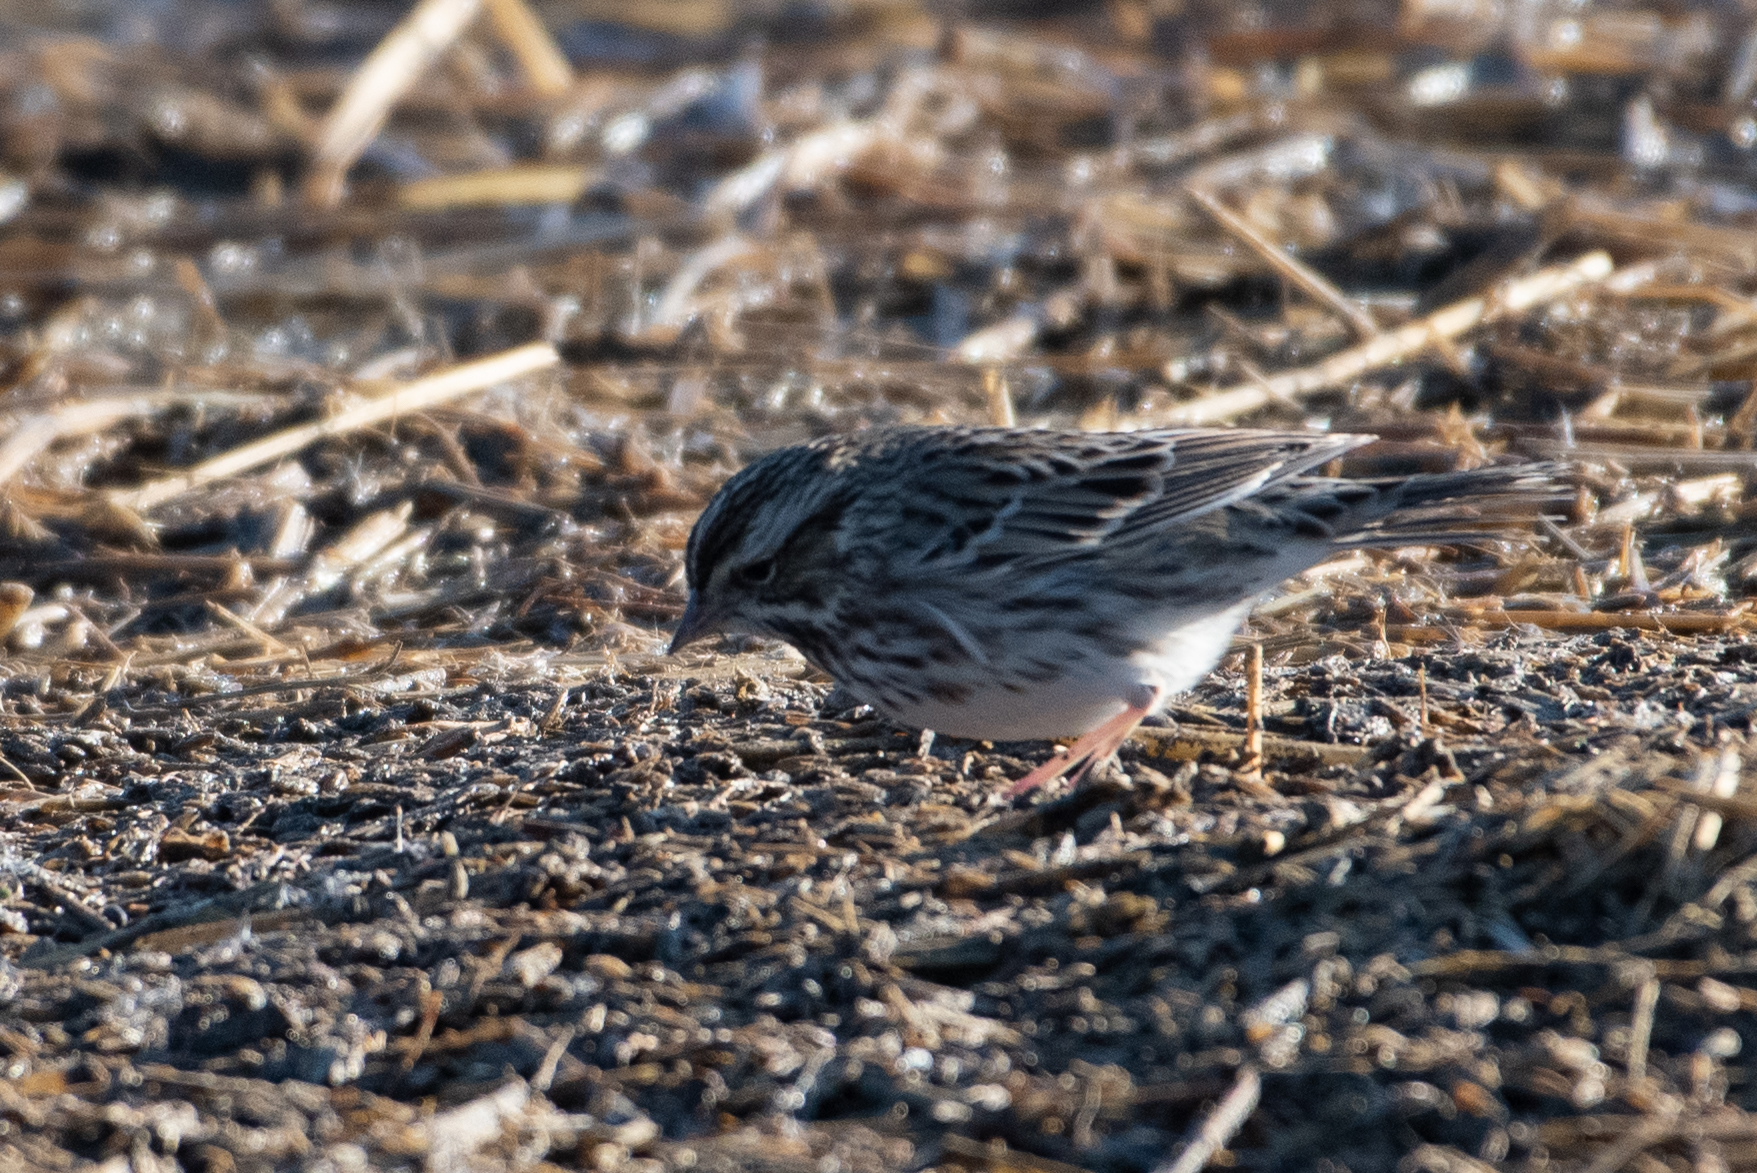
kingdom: Animalia
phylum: Chordata
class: Aves
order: Passeriformes
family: Passerellidae
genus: Passerculus
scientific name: Passerculus sandwichensis
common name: Savannah sparrow
